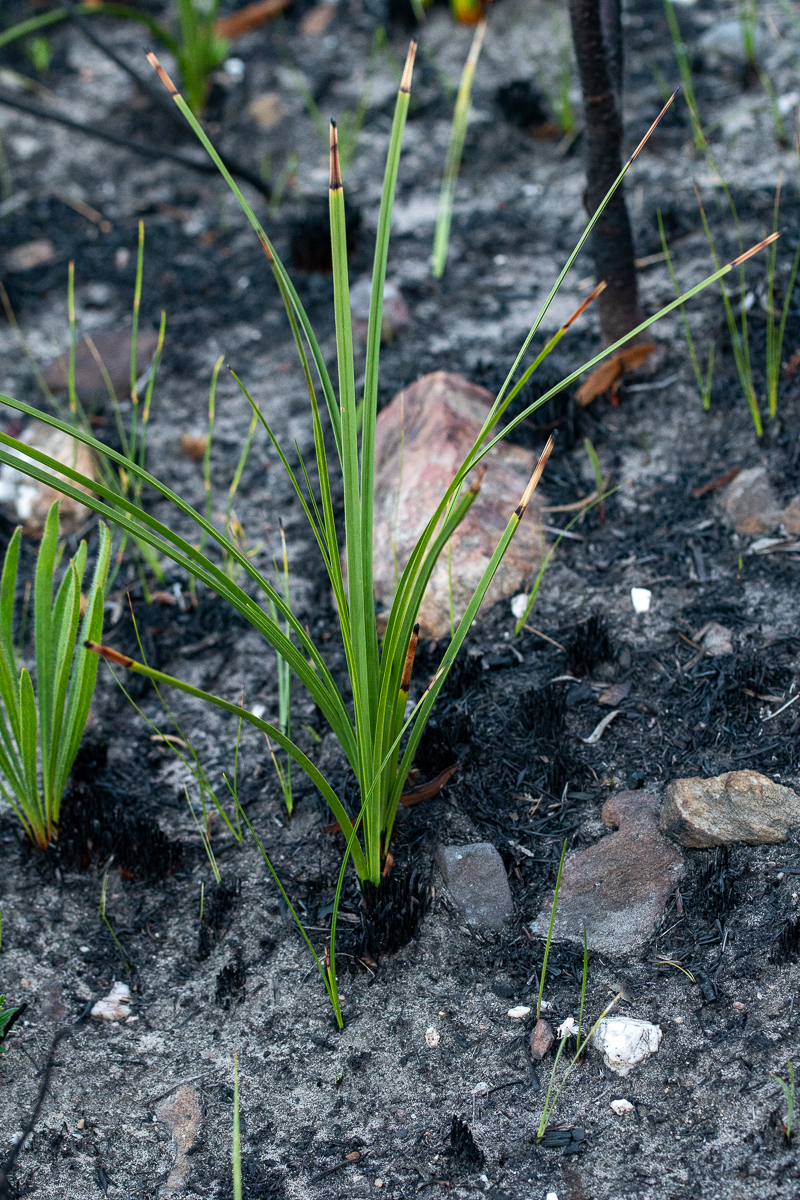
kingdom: Plantae
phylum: Tracheophyta
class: Liliopsida
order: Asparagales
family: Lanariaceae
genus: Lanaria
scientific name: Lanaria lanata
